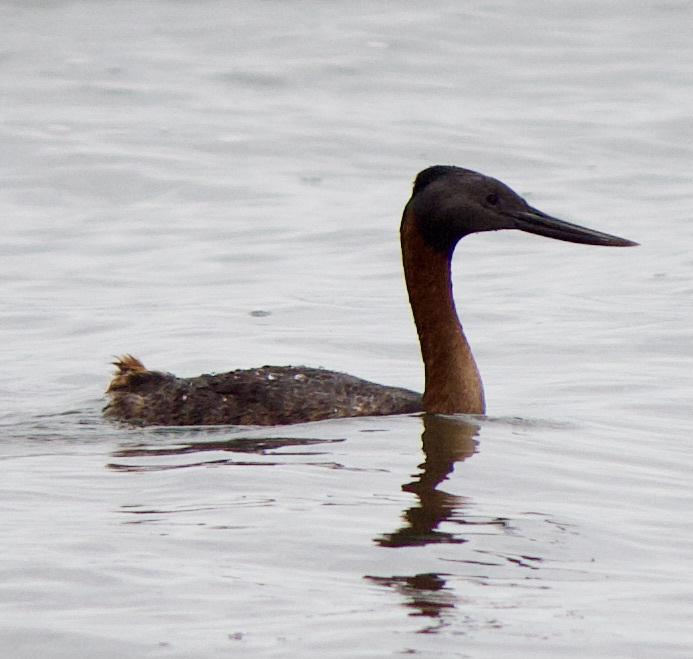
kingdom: Animalia
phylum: Chordata
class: Aves
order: Podicipediformes
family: Podicipedidae
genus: Podiceps
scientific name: Podiceps major
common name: Great grebe
